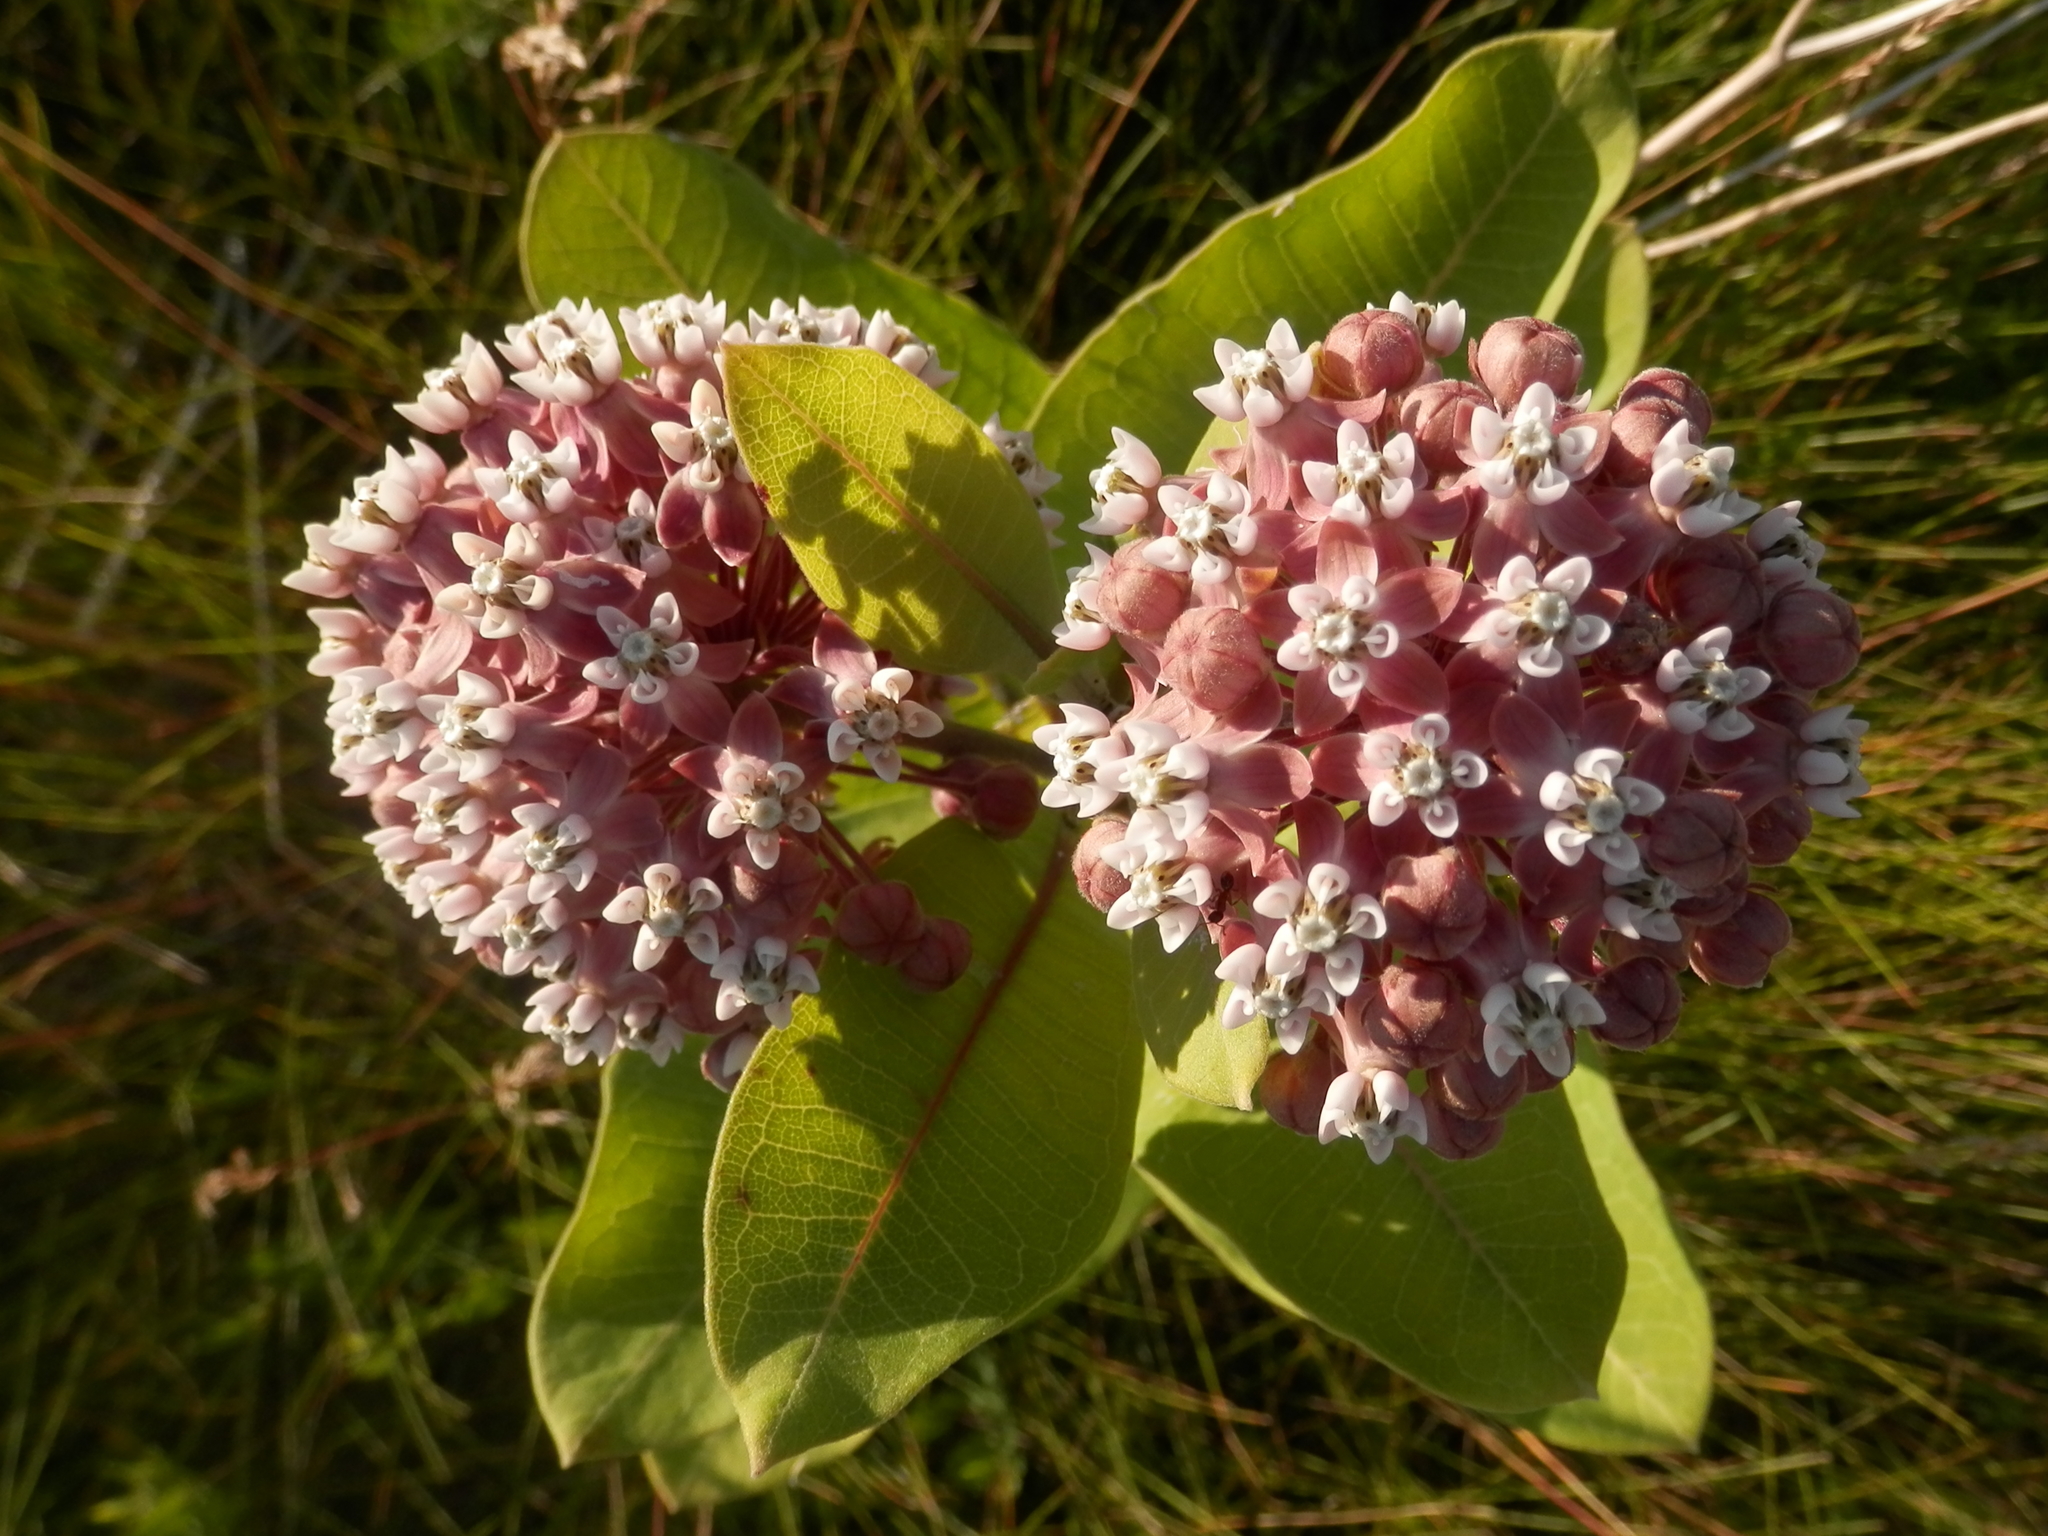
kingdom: Plantae
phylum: Tracheophyta
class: Magnoliopsida
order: Gentianales
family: Apocynaceae
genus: Asclepias
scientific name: Asclepias syriaca
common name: Common milkweed
